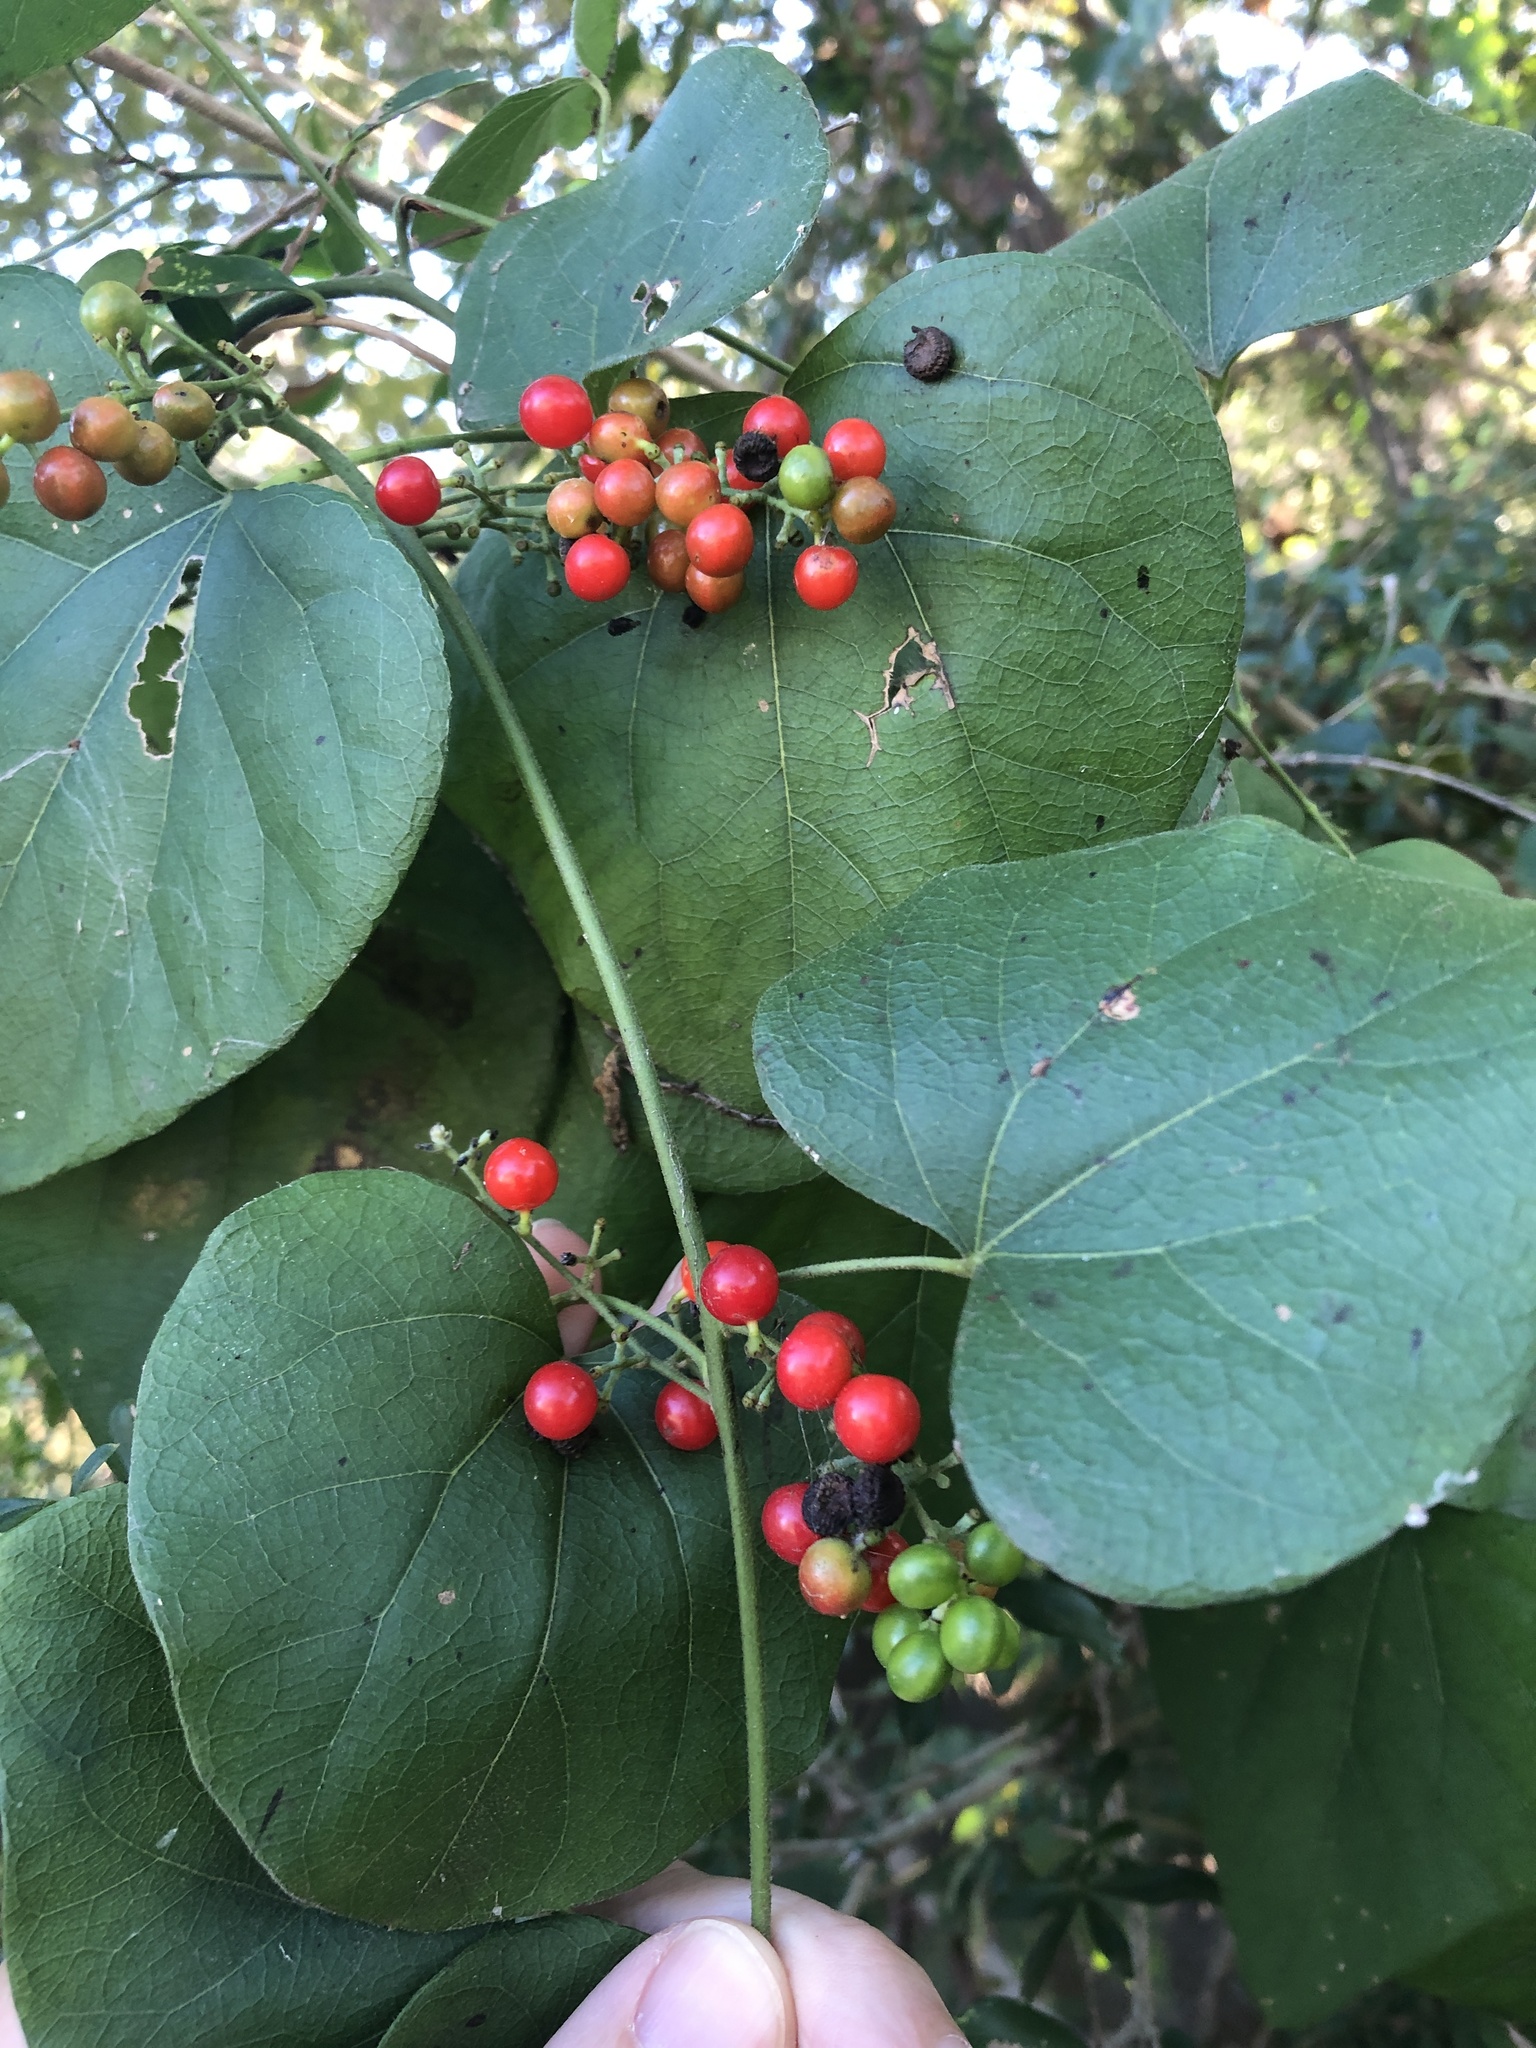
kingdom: Plantae
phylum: Tracheophyta
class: Magnoliopsida
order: Ranunculales
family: Menispermaceae
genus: Cocculus
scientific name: Cocculus carolinus
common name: Carolina moonseed
